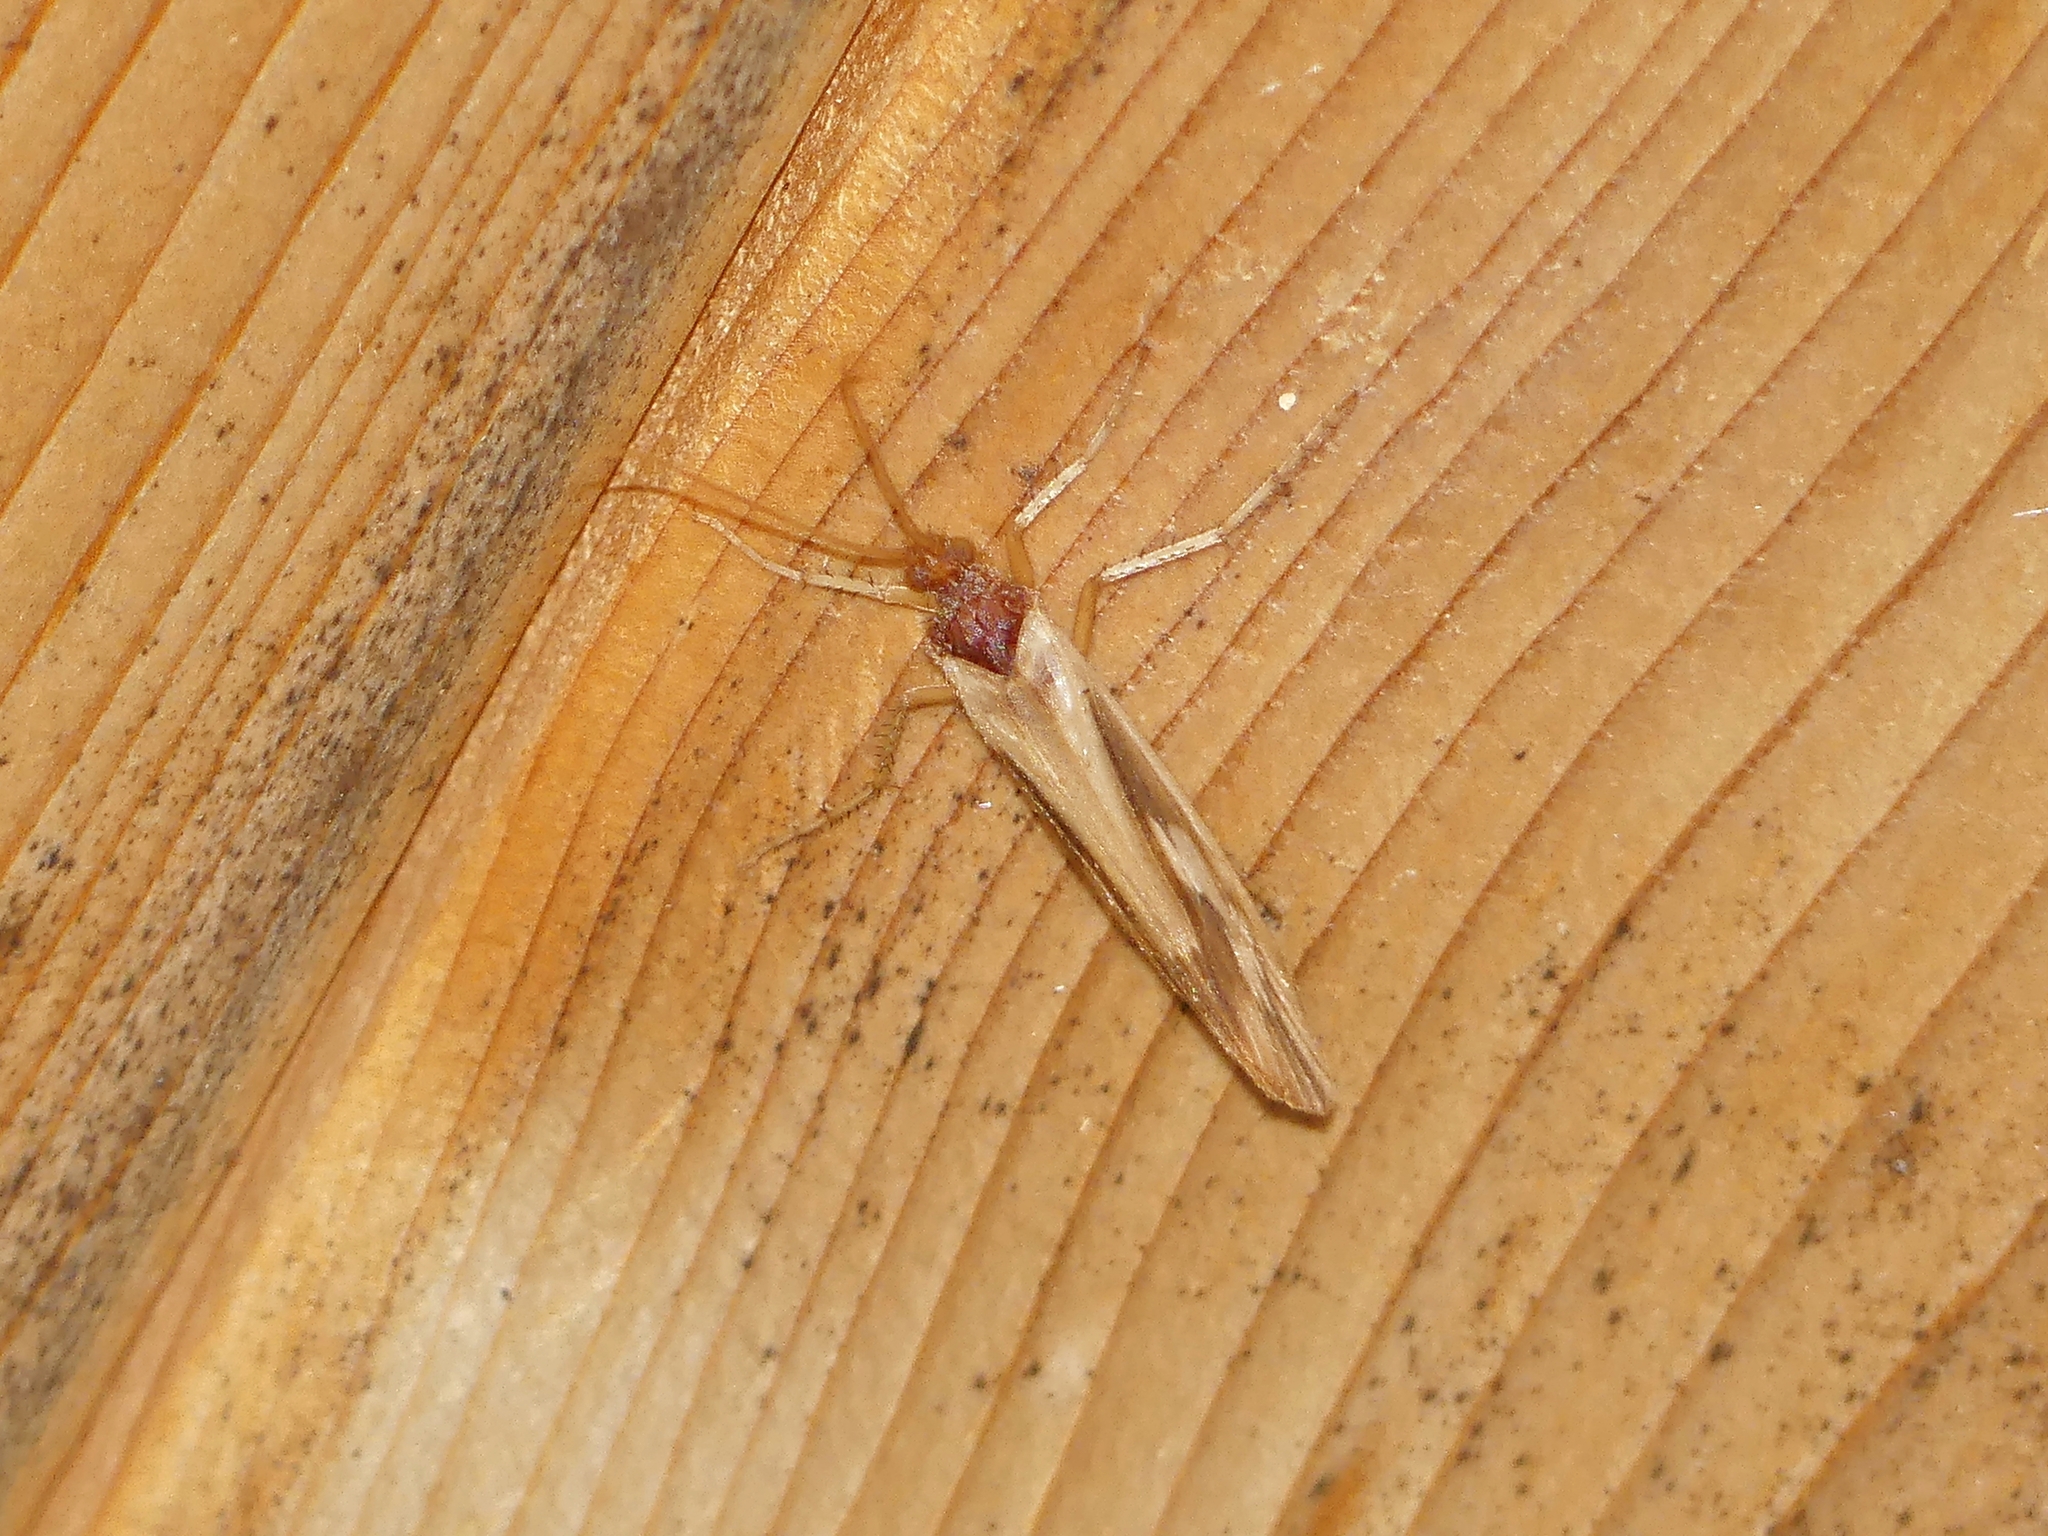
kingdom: Animalia
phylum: Arthropoda
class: Insecta
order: Trichoptera
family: Limnephilidae
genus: Platycentropus
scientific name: Platycentropus radiatus
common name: Chocolate-and-cream sedge
